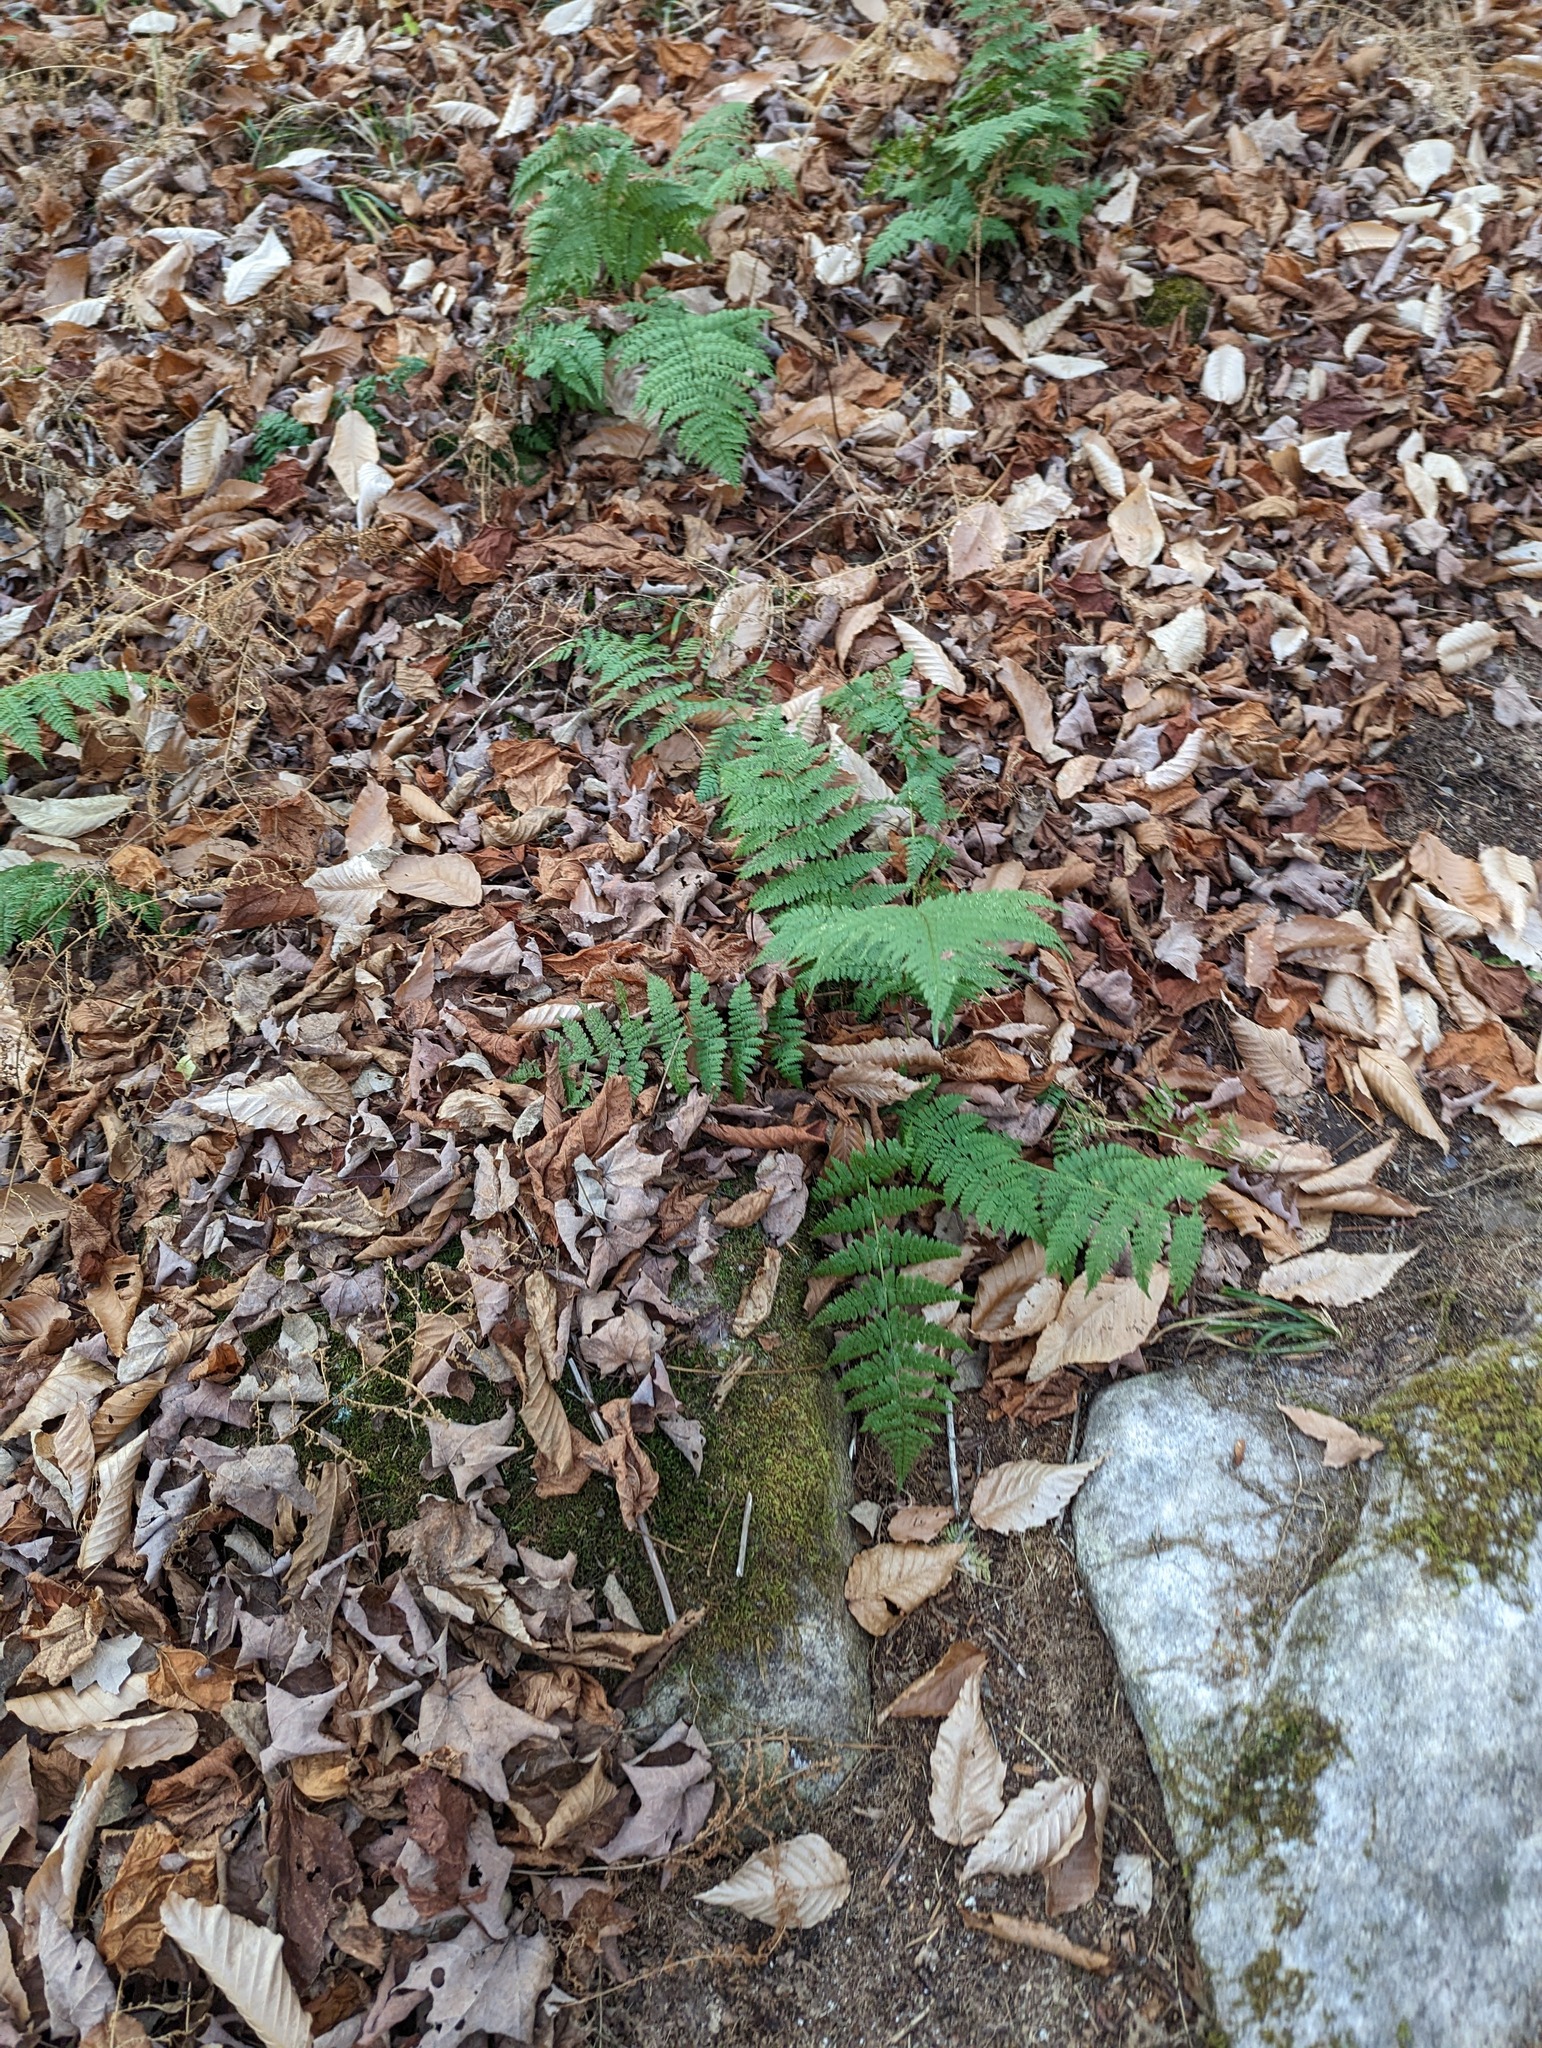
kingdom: Plantae
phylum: Tracheophyta
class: Polypodiopsida
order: Polypodiales
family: Dryopteridaceae
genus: Dryopteris
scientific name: Dryopteris intermedia
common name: Evergreen wood fern
